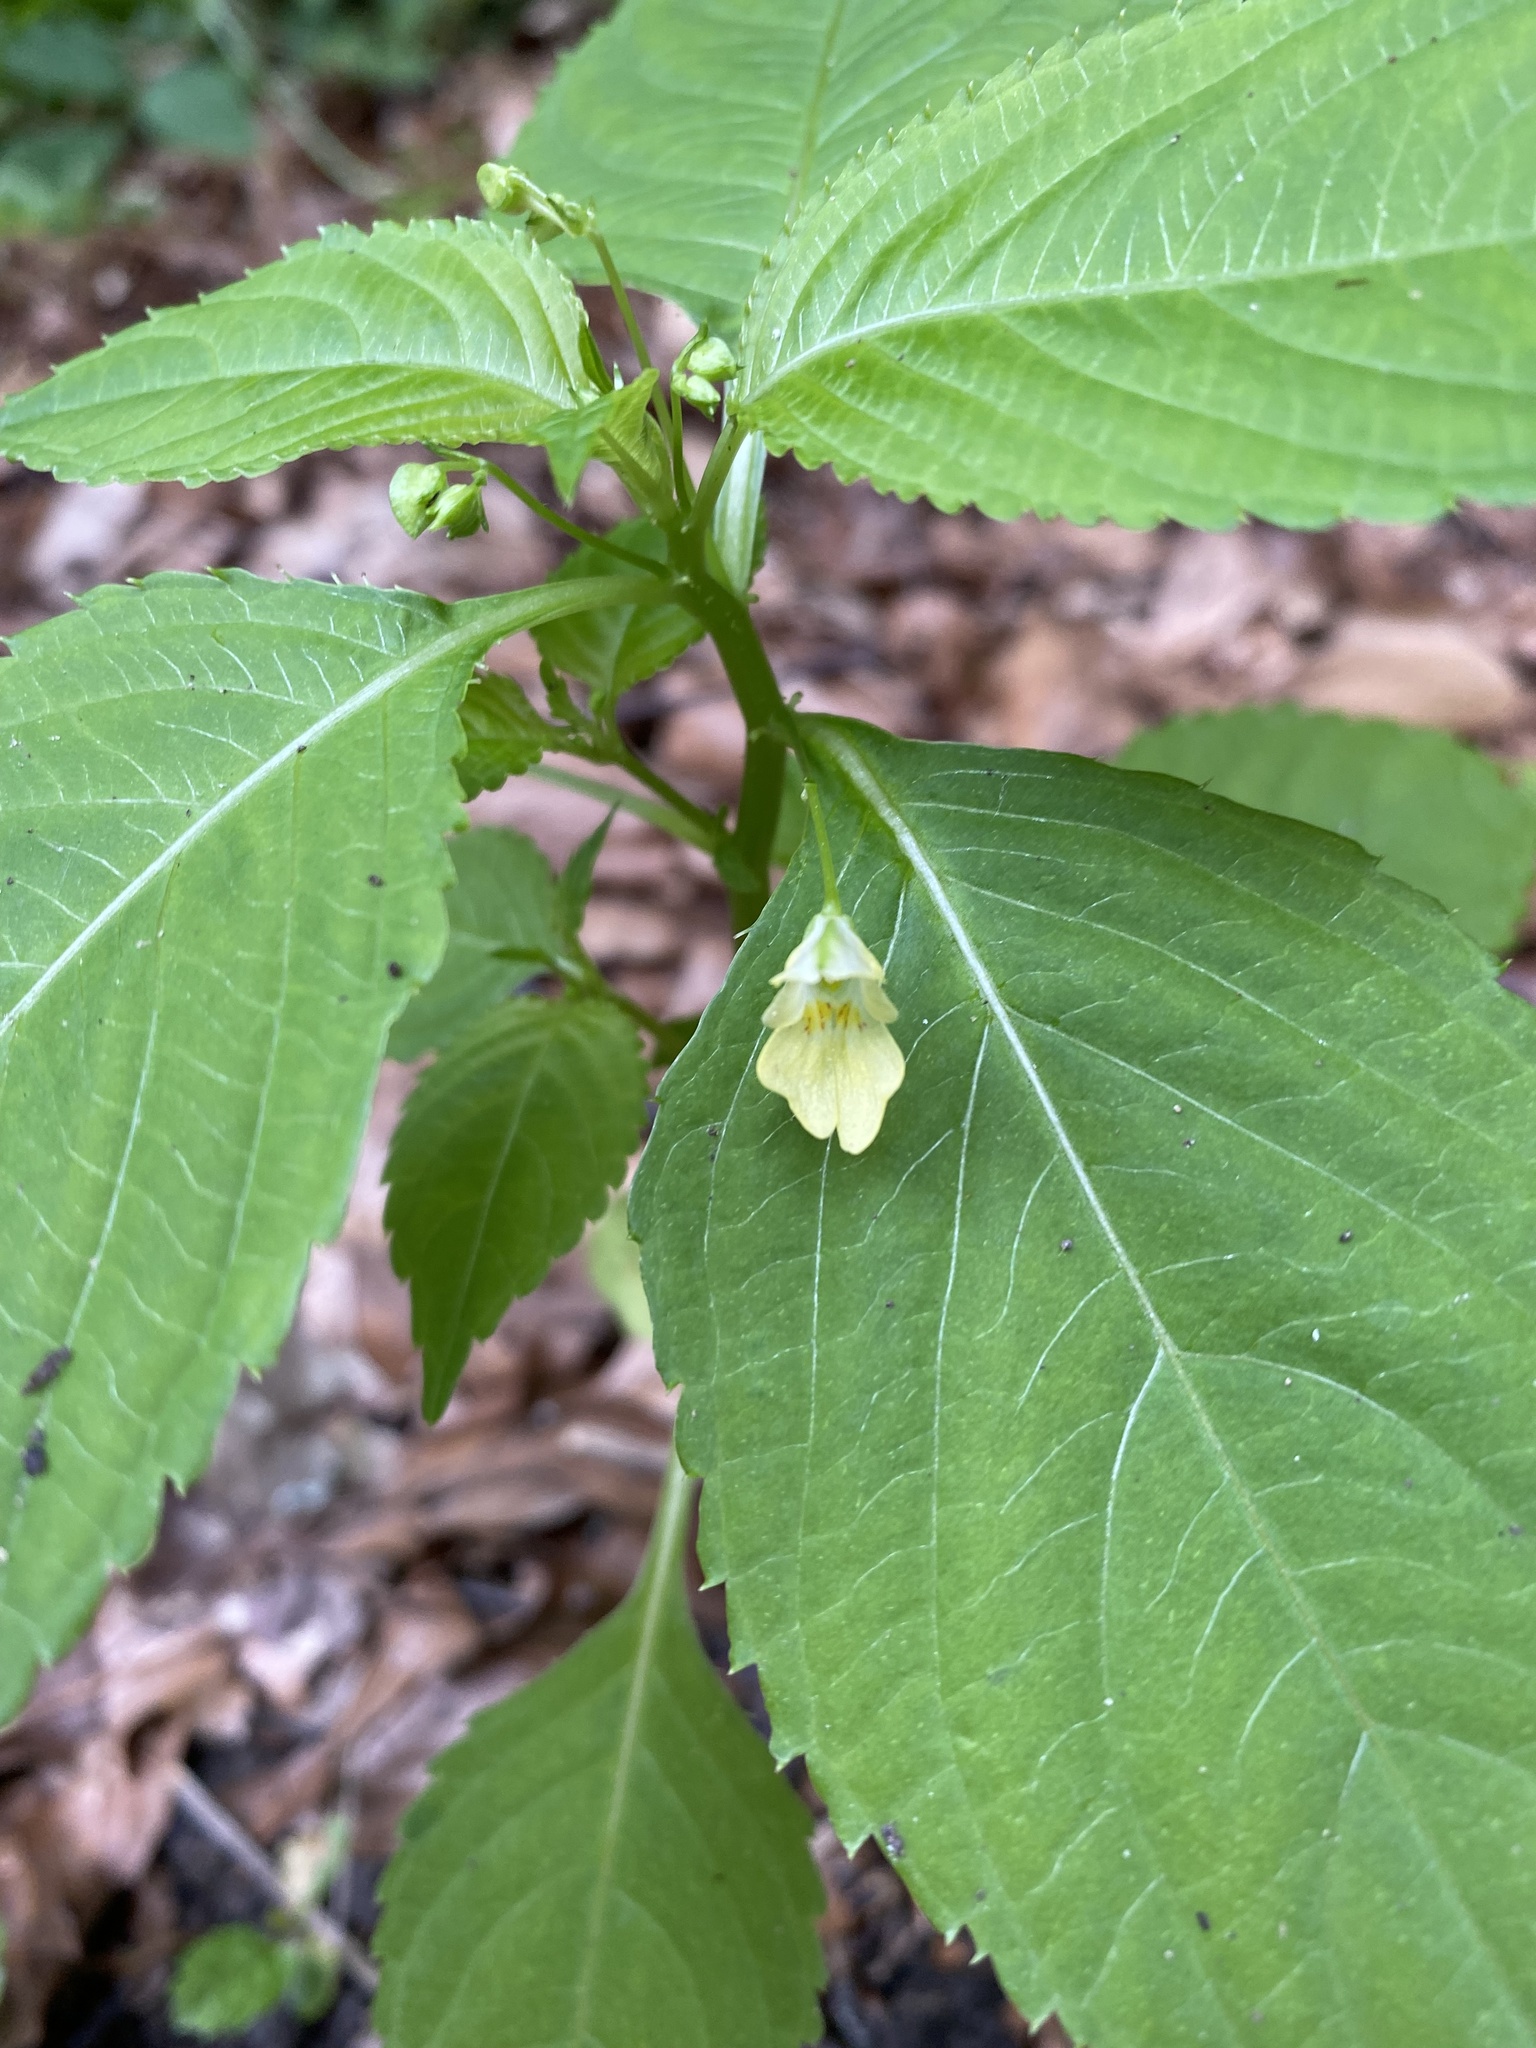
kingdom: Plantae
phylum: Tracheophyta
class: Magnoliopsida
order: Ericales
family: Balsaminaceae
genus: Impatiens
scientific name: Impatiens parviflora
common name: Small balsam
